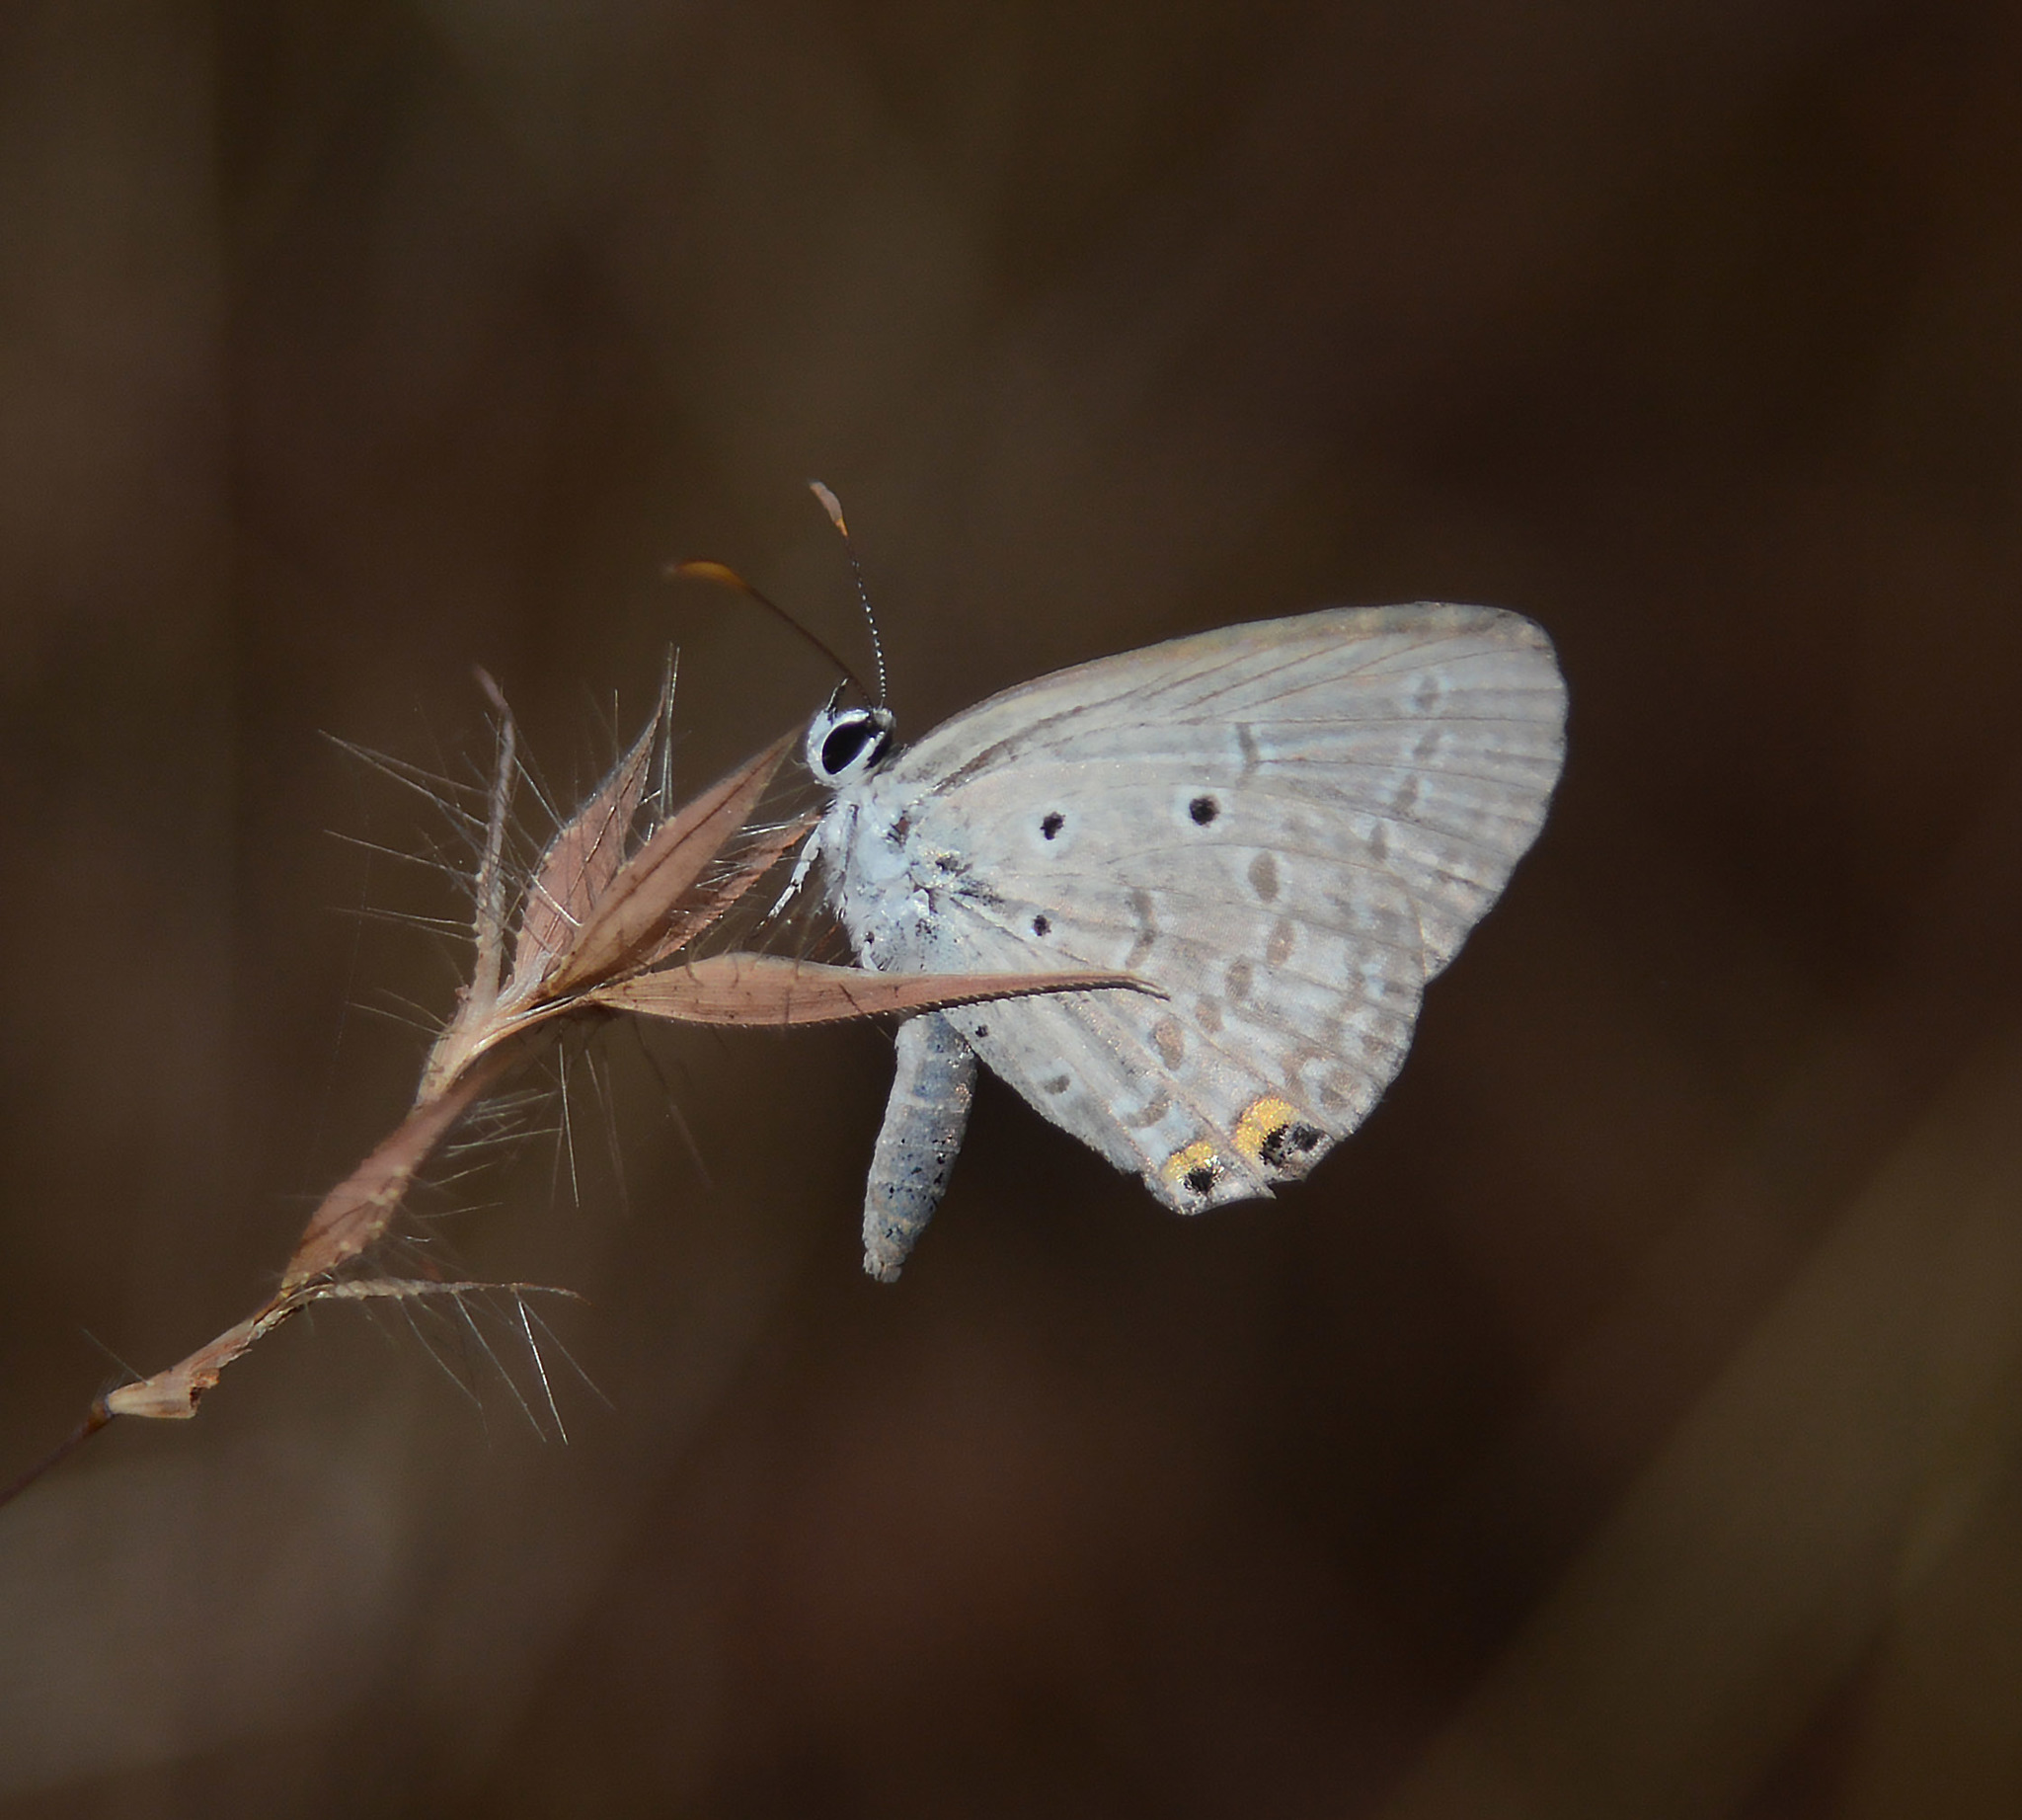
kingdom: Animalia
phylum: Arthropoda
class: Insecta
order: Lepidoptera
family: Lycaenidae
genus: Euchrysops
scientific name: Euchrysops cnejus
